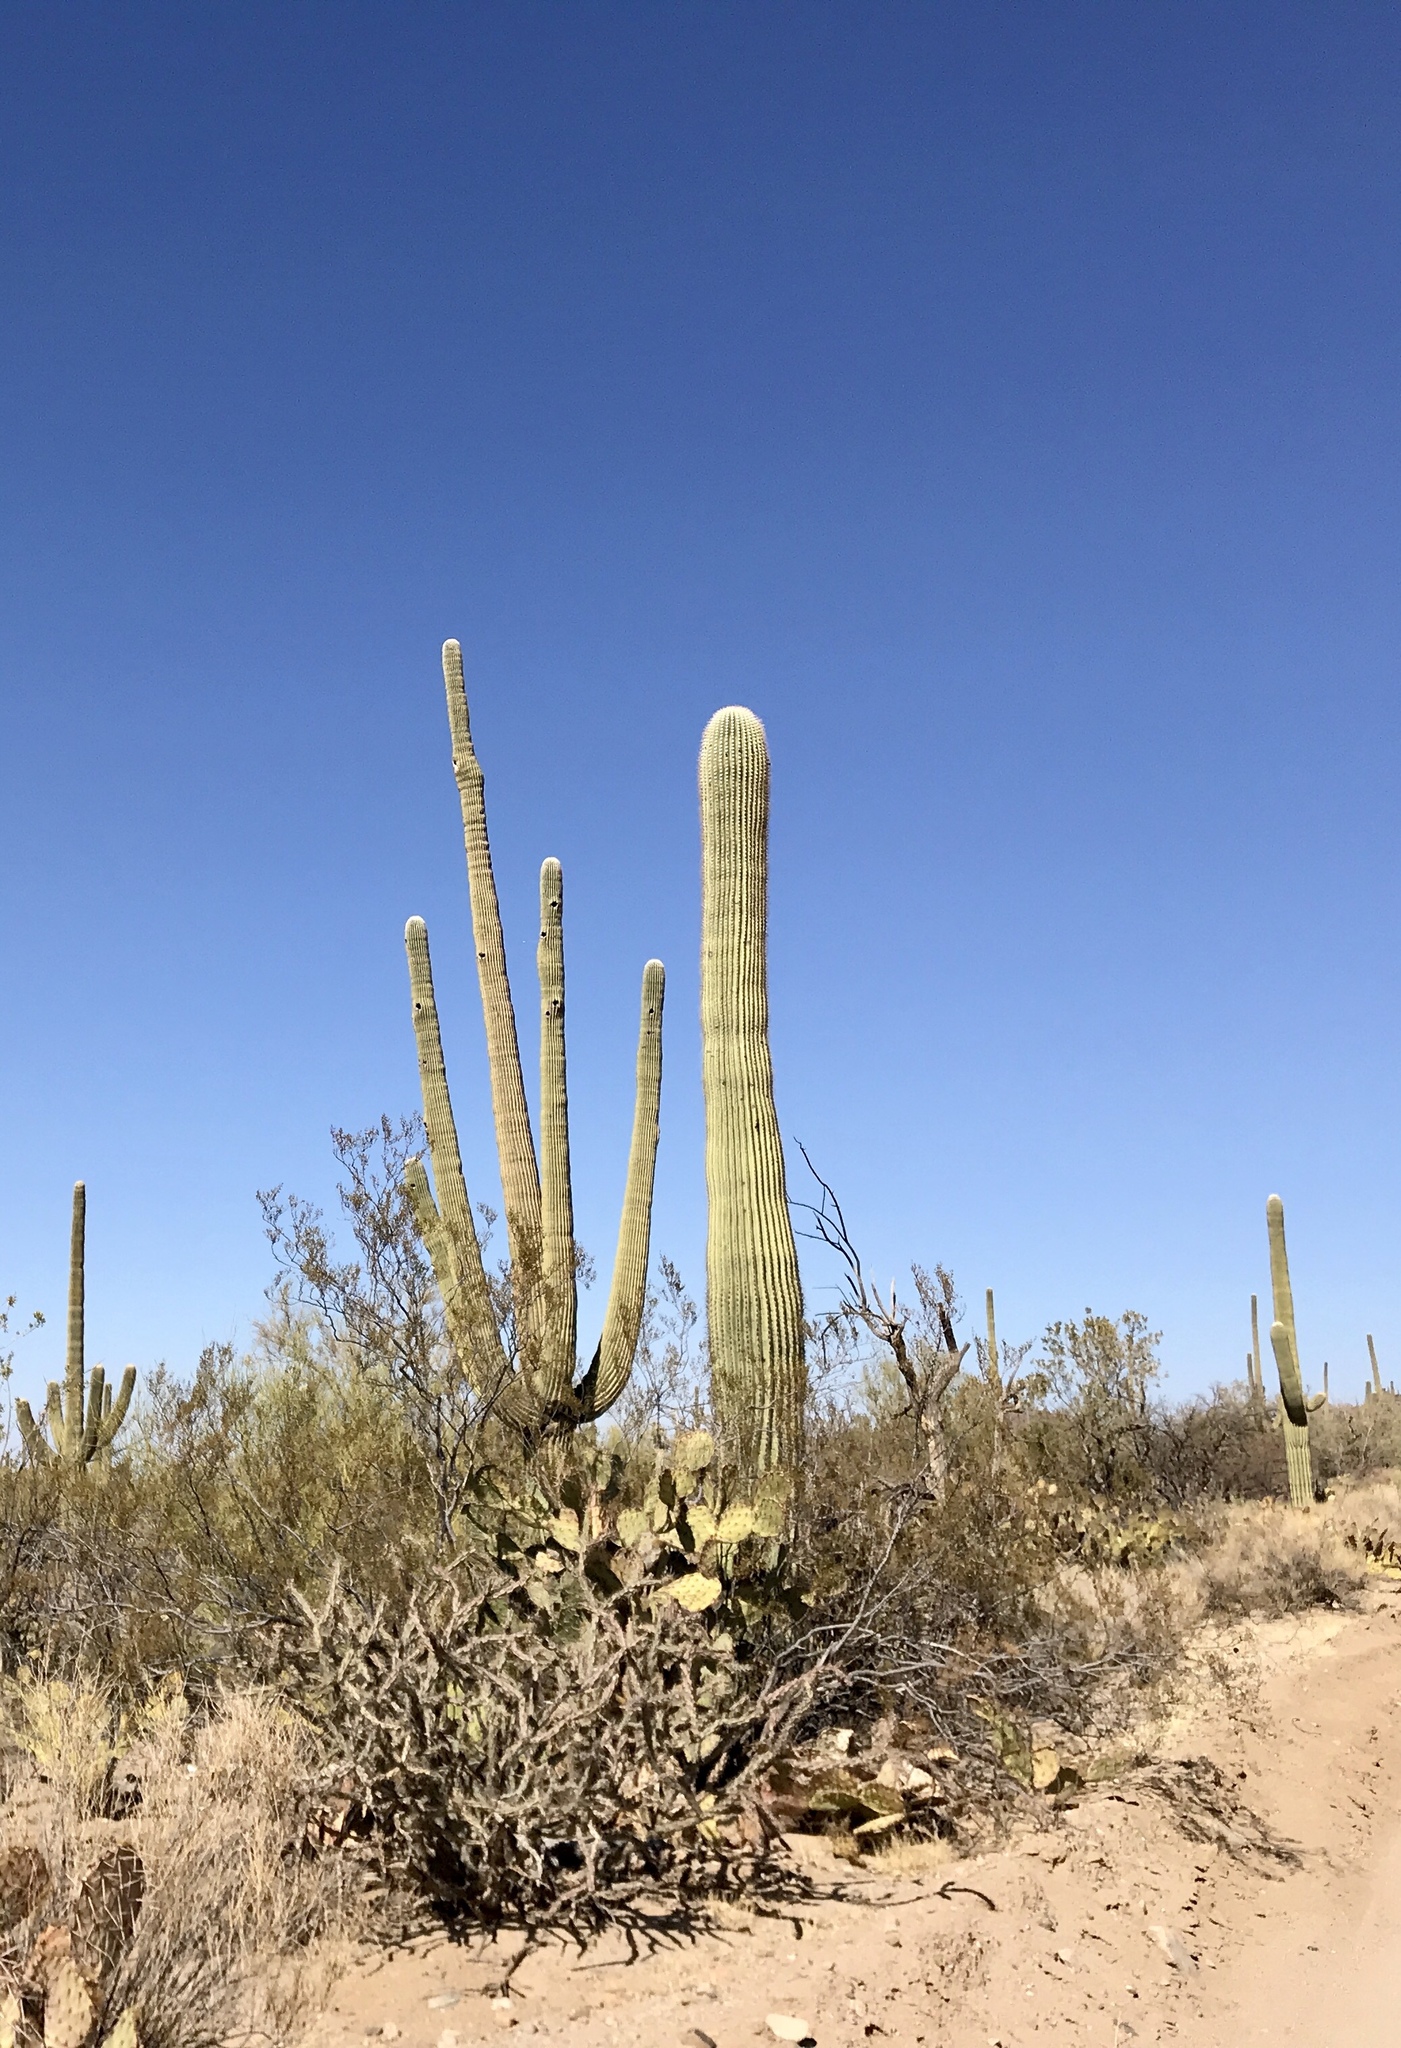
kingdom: Plantae
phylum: Tracheophyta
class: Magnoliopsida
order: Caryophyllales
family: Cactaceae
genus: Carnegiea
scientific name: Carnegiea gigantea
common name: Saguaro
